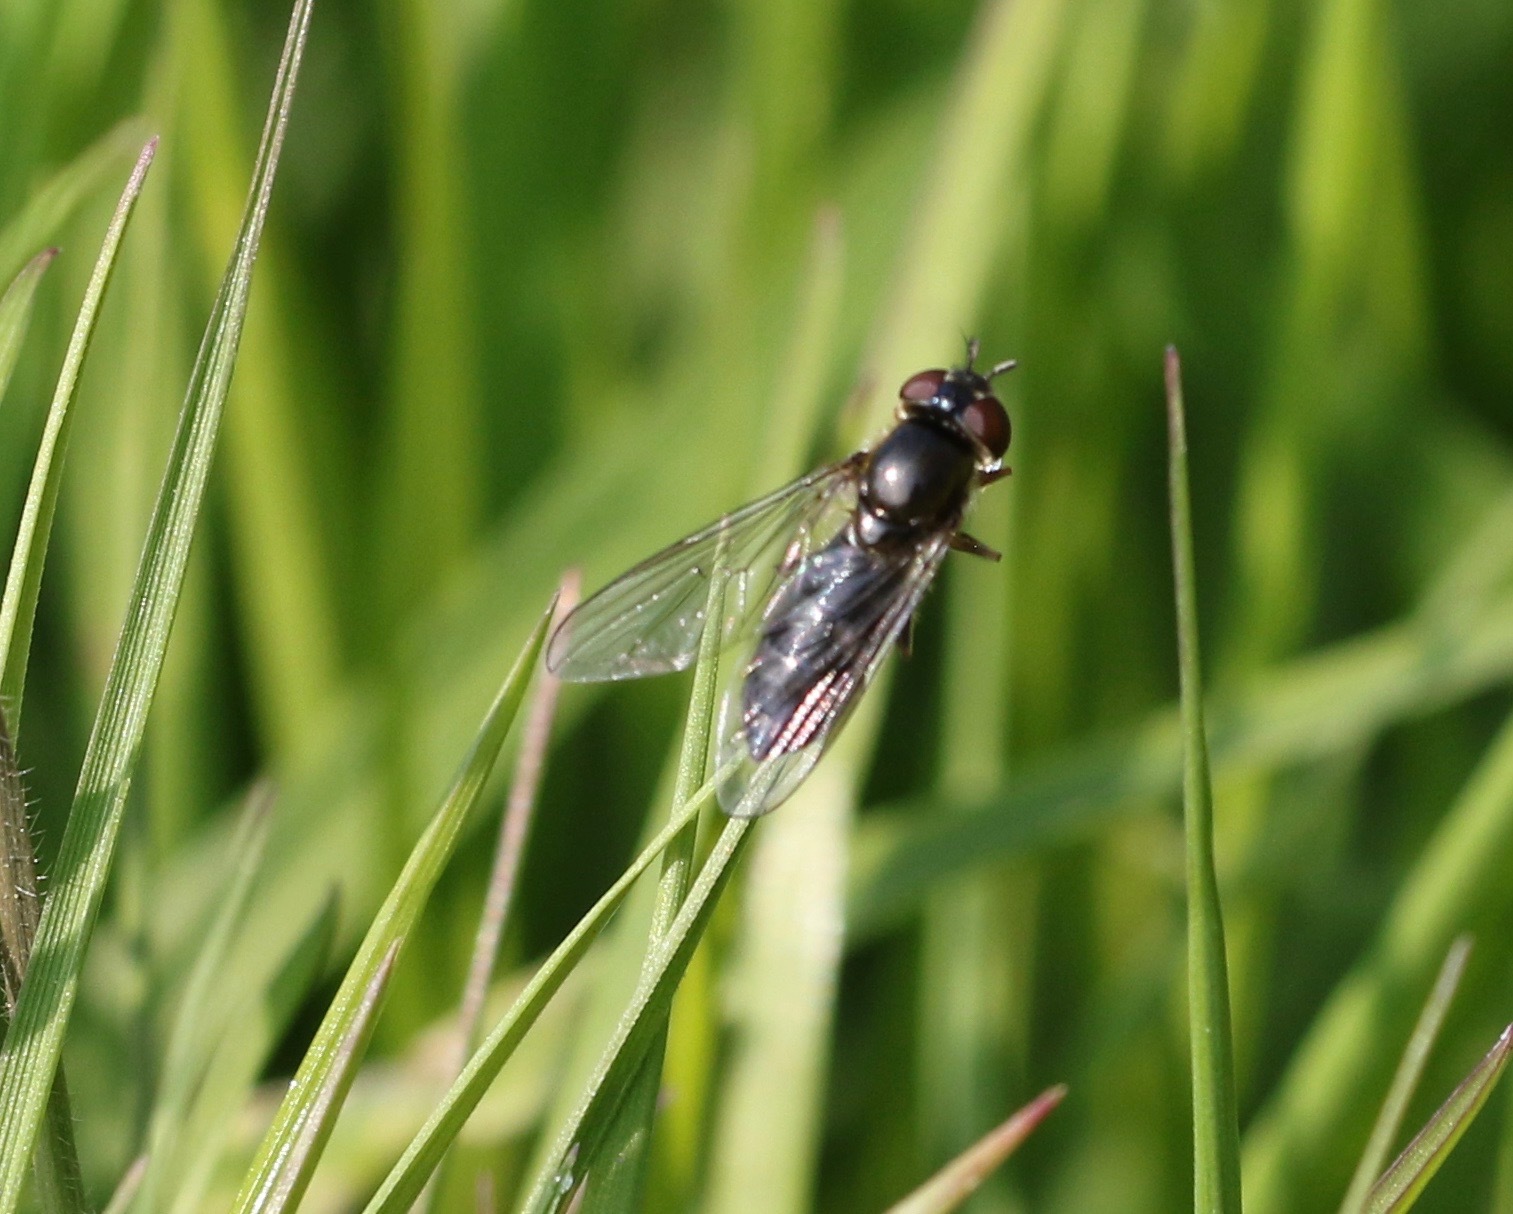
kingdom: Animalia
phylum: Arthropoda
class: Insecta
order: Diptera
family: Syrphidae
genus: Platycheirus
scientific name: Platycheirus albimanus
